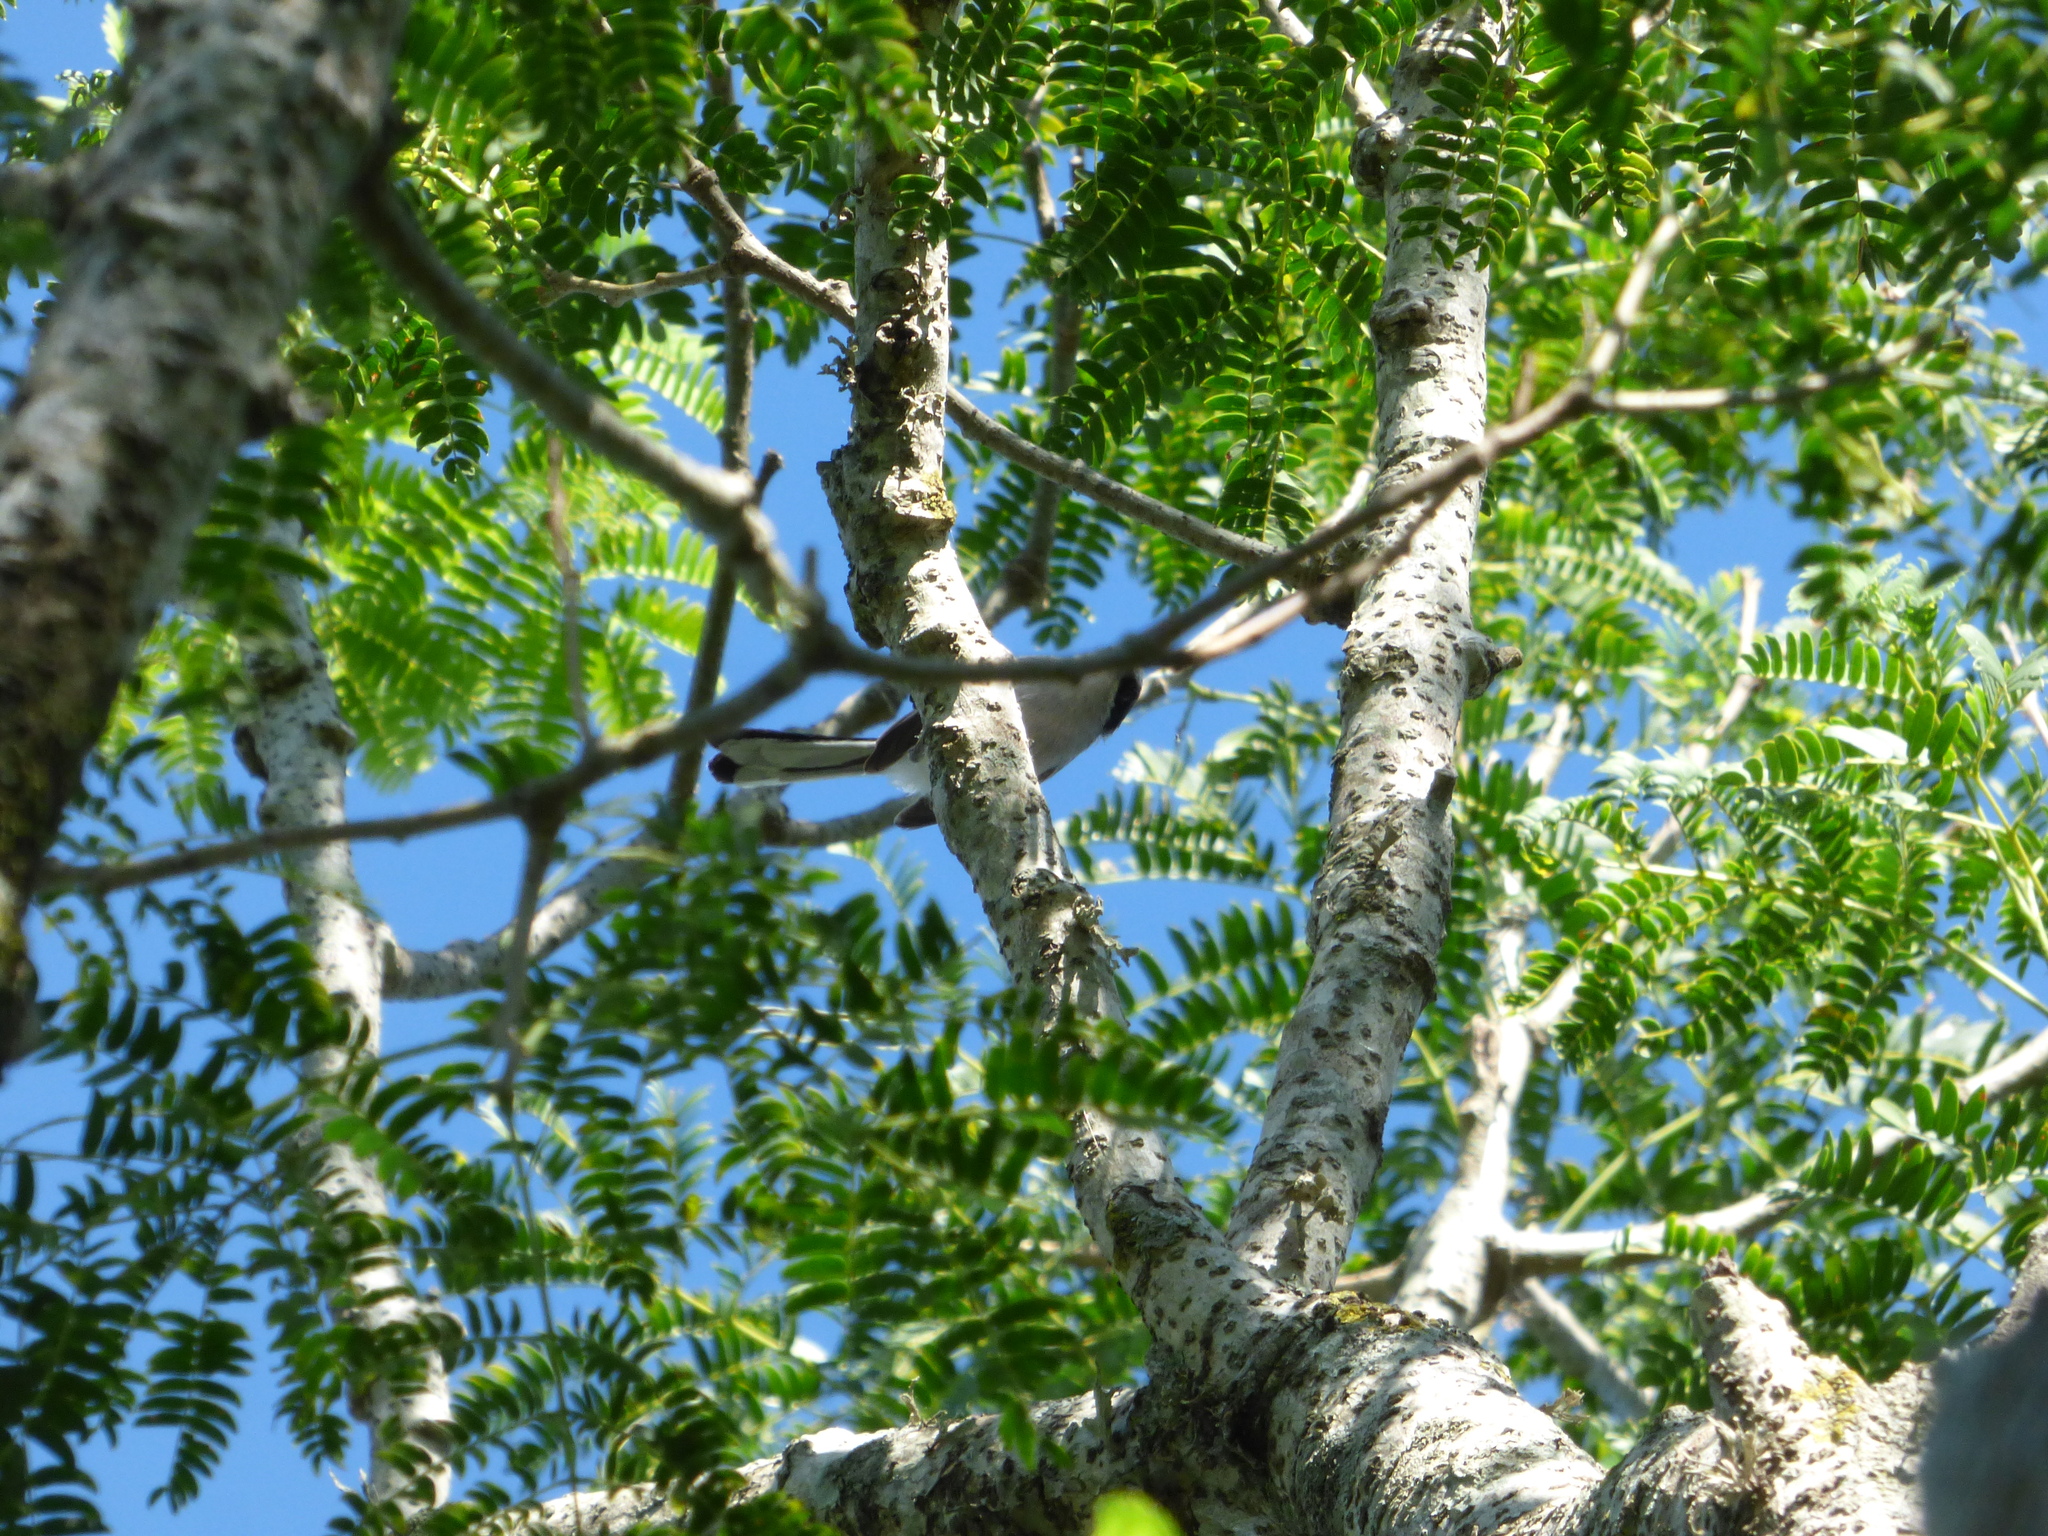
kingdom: Animalia
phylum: Chordata
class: Aves
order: Passeriformes
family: Polioptilidae
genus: Polioptila
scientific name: Polioptila dumicola
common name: Masked gnatcatcher
